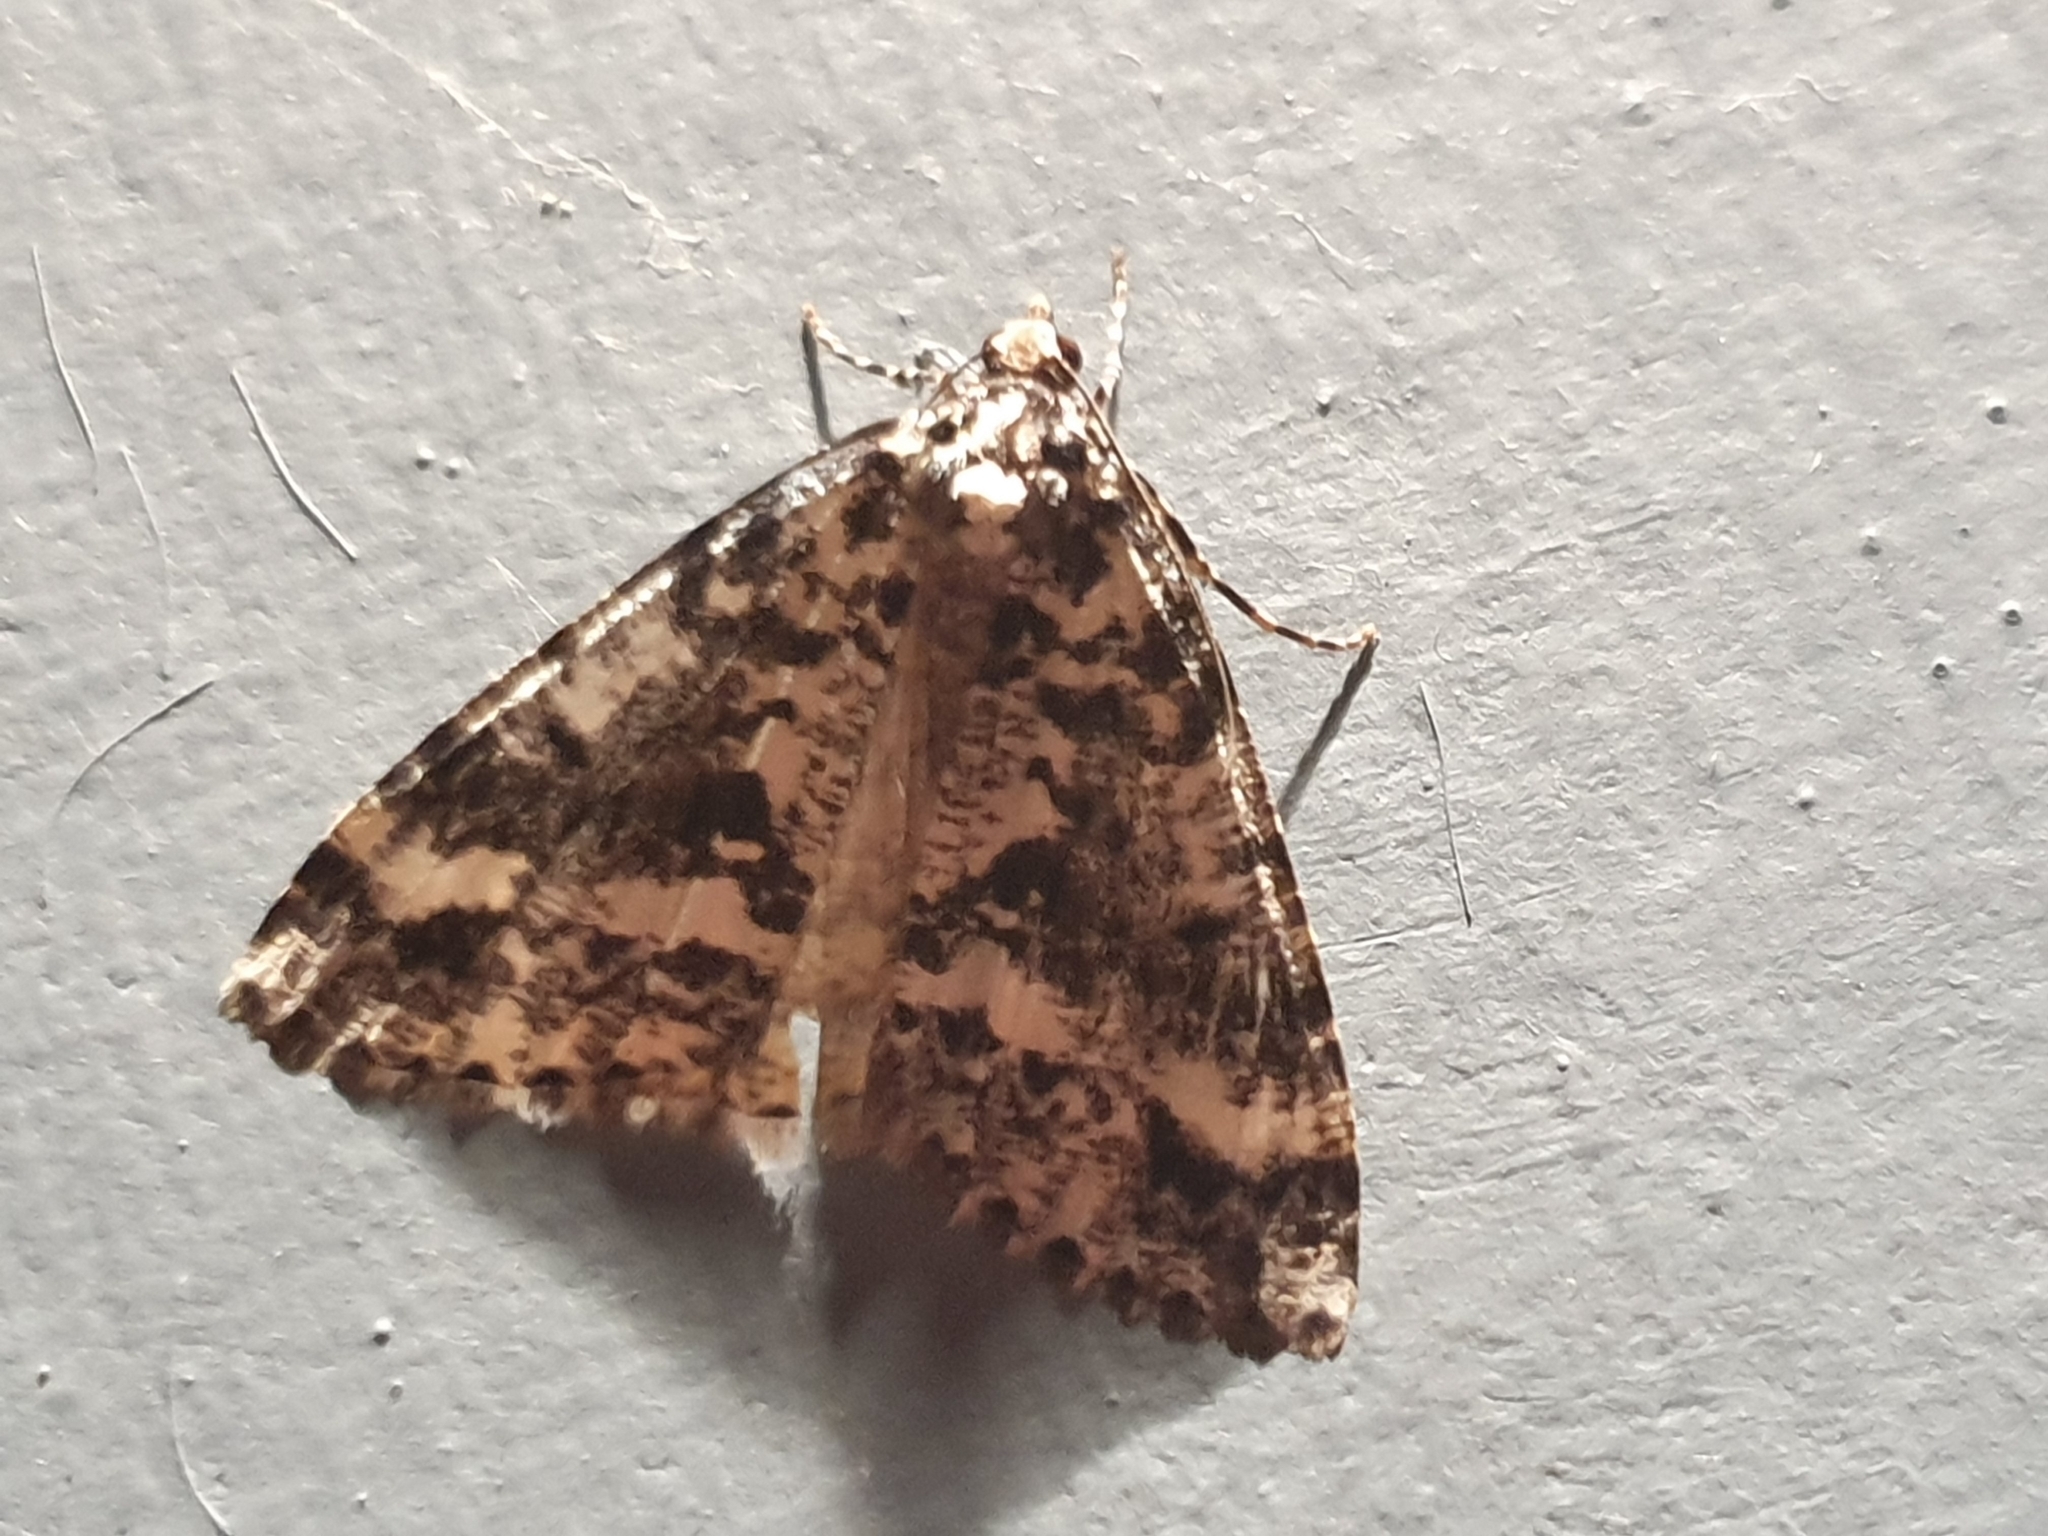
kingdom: Animalia
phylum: Arthropoda
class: Insecta
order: Lepidoptera
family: Geometridae
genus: Pseudocoremia
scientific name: Pseudocoremia leucelaea
